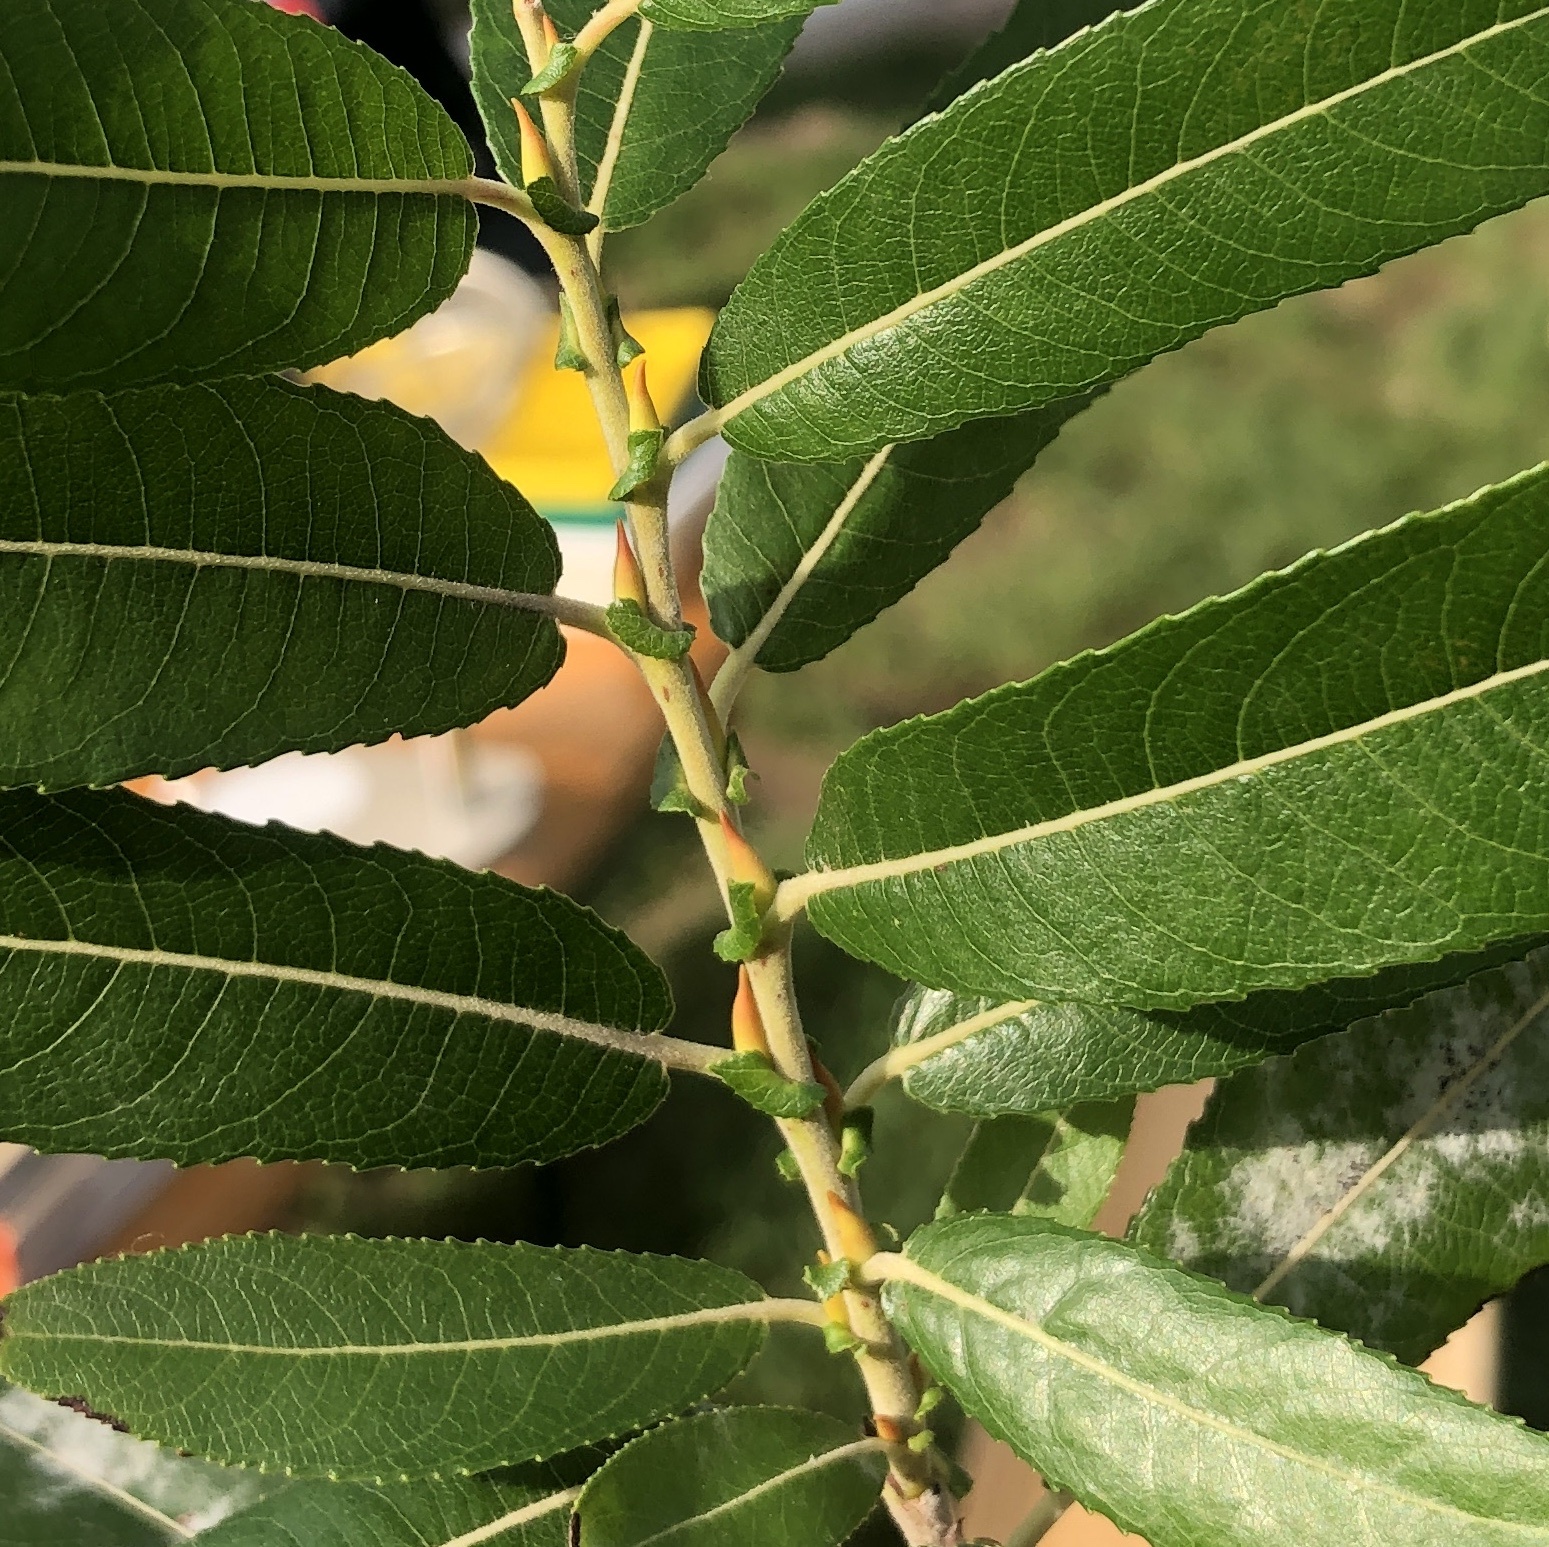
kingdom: Plantae
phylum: Tracheophyta
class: Magnoliopsida
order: Malpighiales
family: Salicaceae
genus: Salix
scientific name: Salix eriocephala
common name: Heart-leaved willow
